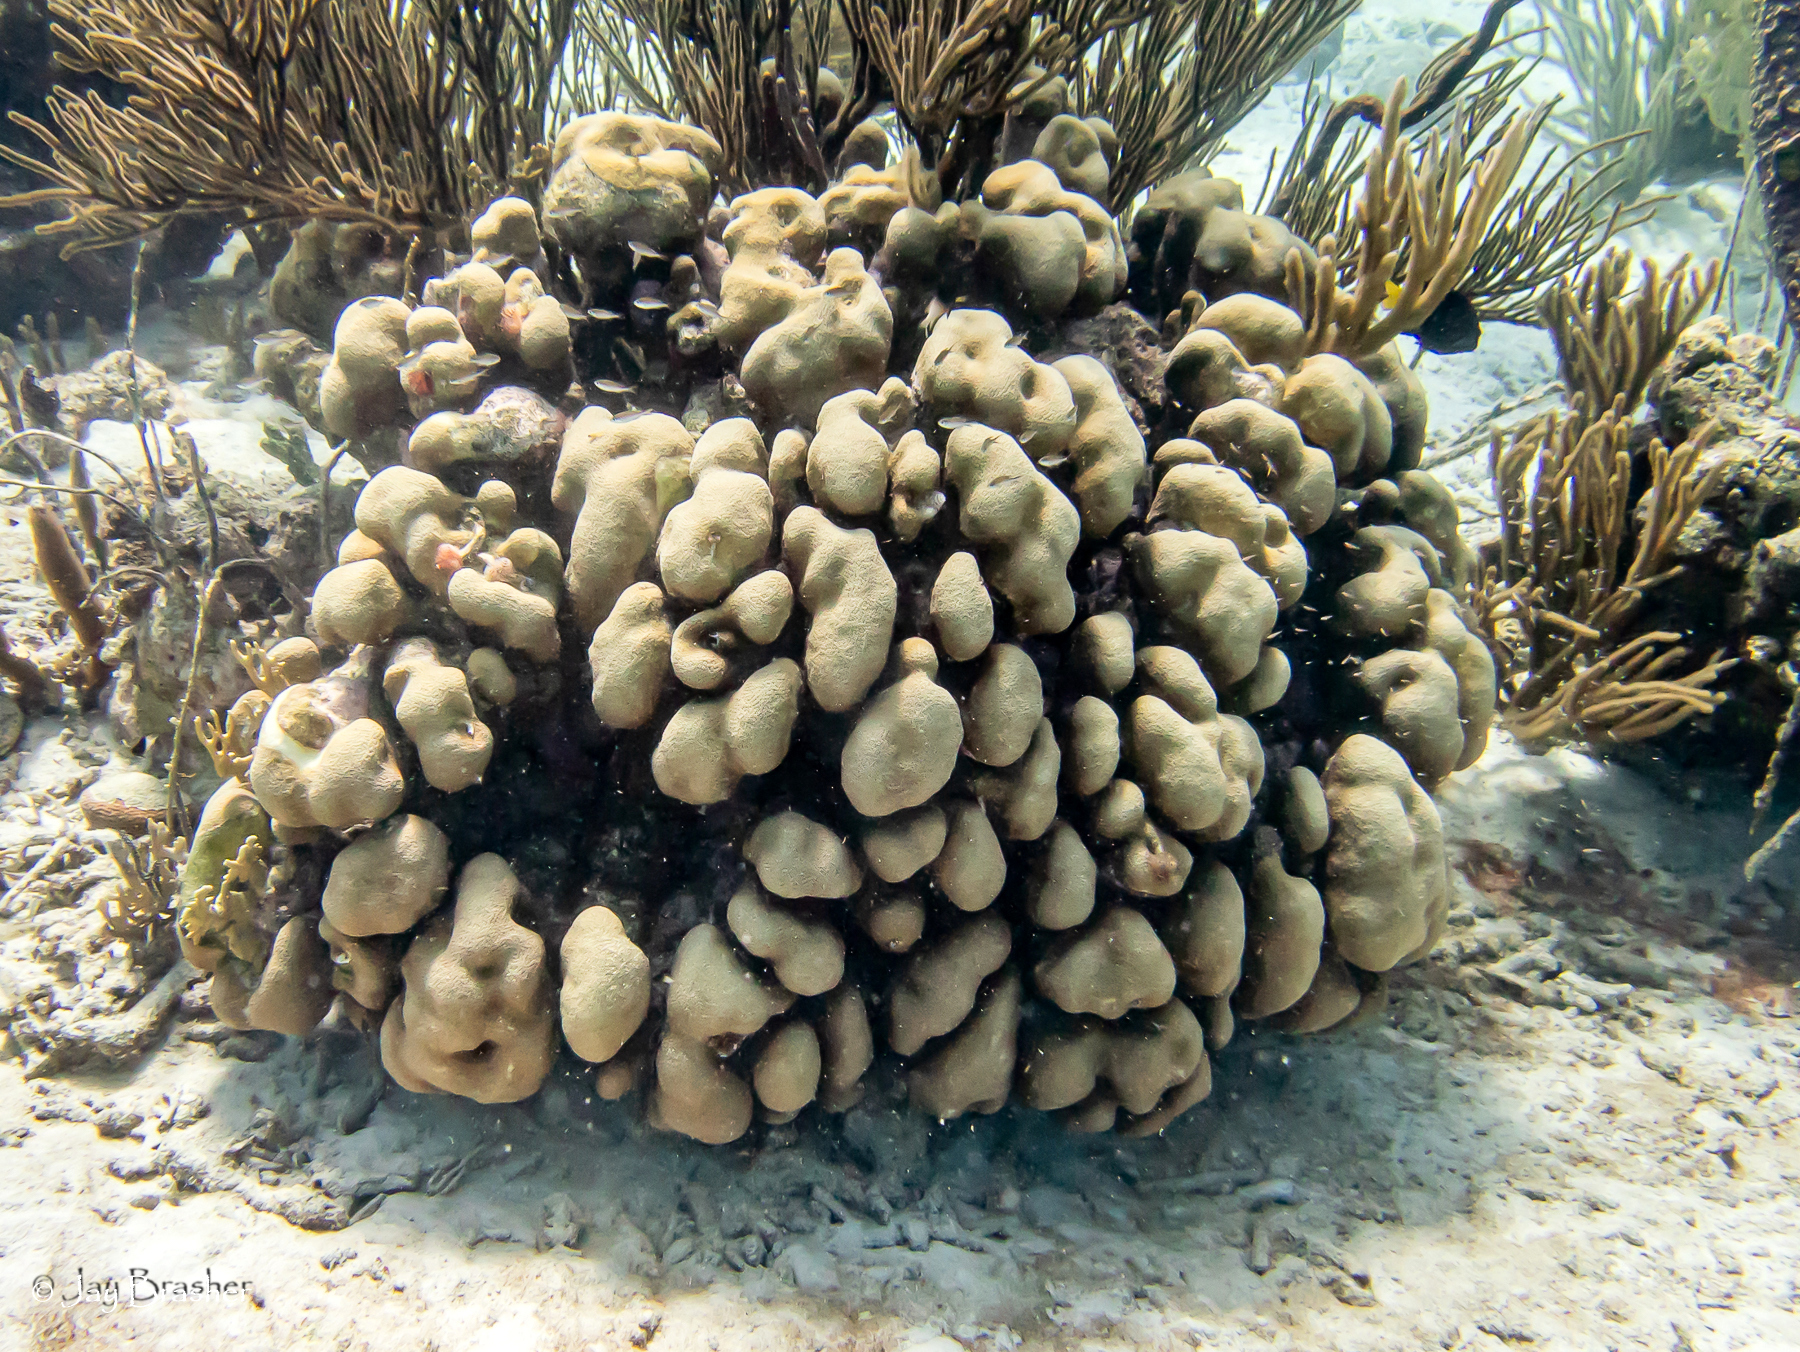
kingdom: Animalia
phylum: Cnidaria
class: Anthozoa
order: Scleractinia
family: Merulinidae
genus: Orbicella
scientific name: Orbicella annularis
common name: Boulder star coral
